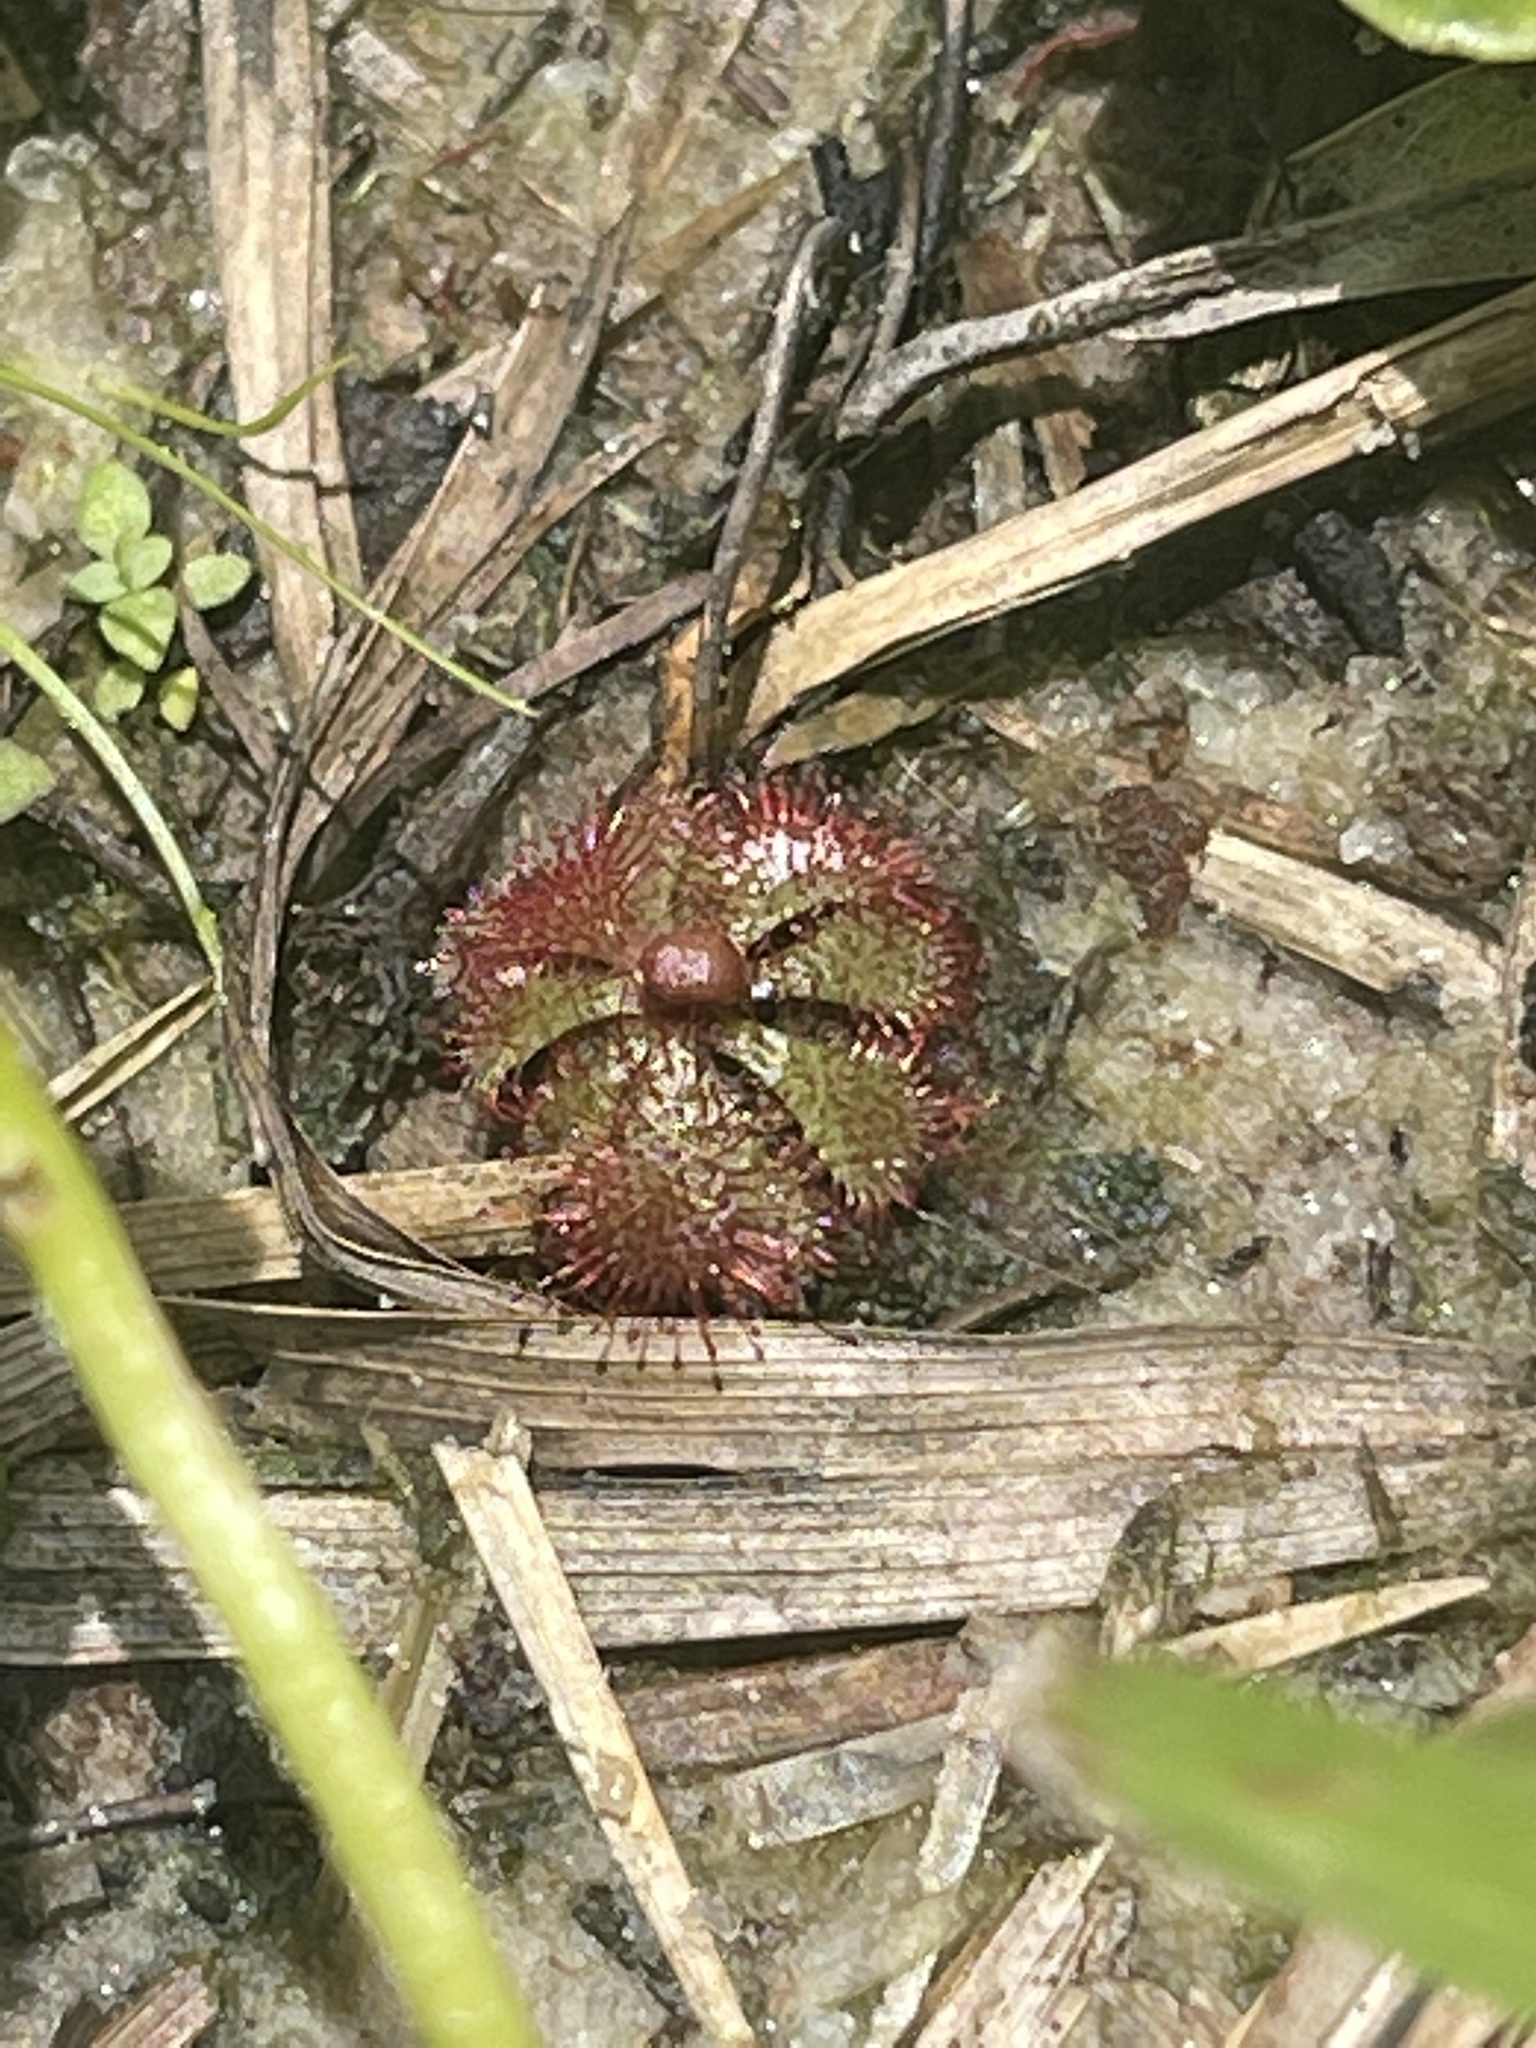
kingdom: Plantae
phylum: Tracheophyta
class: Magnoliopsida
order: Caryophyllales
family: Droseraceae
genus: Drosera
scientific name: Drosera brevifolia
